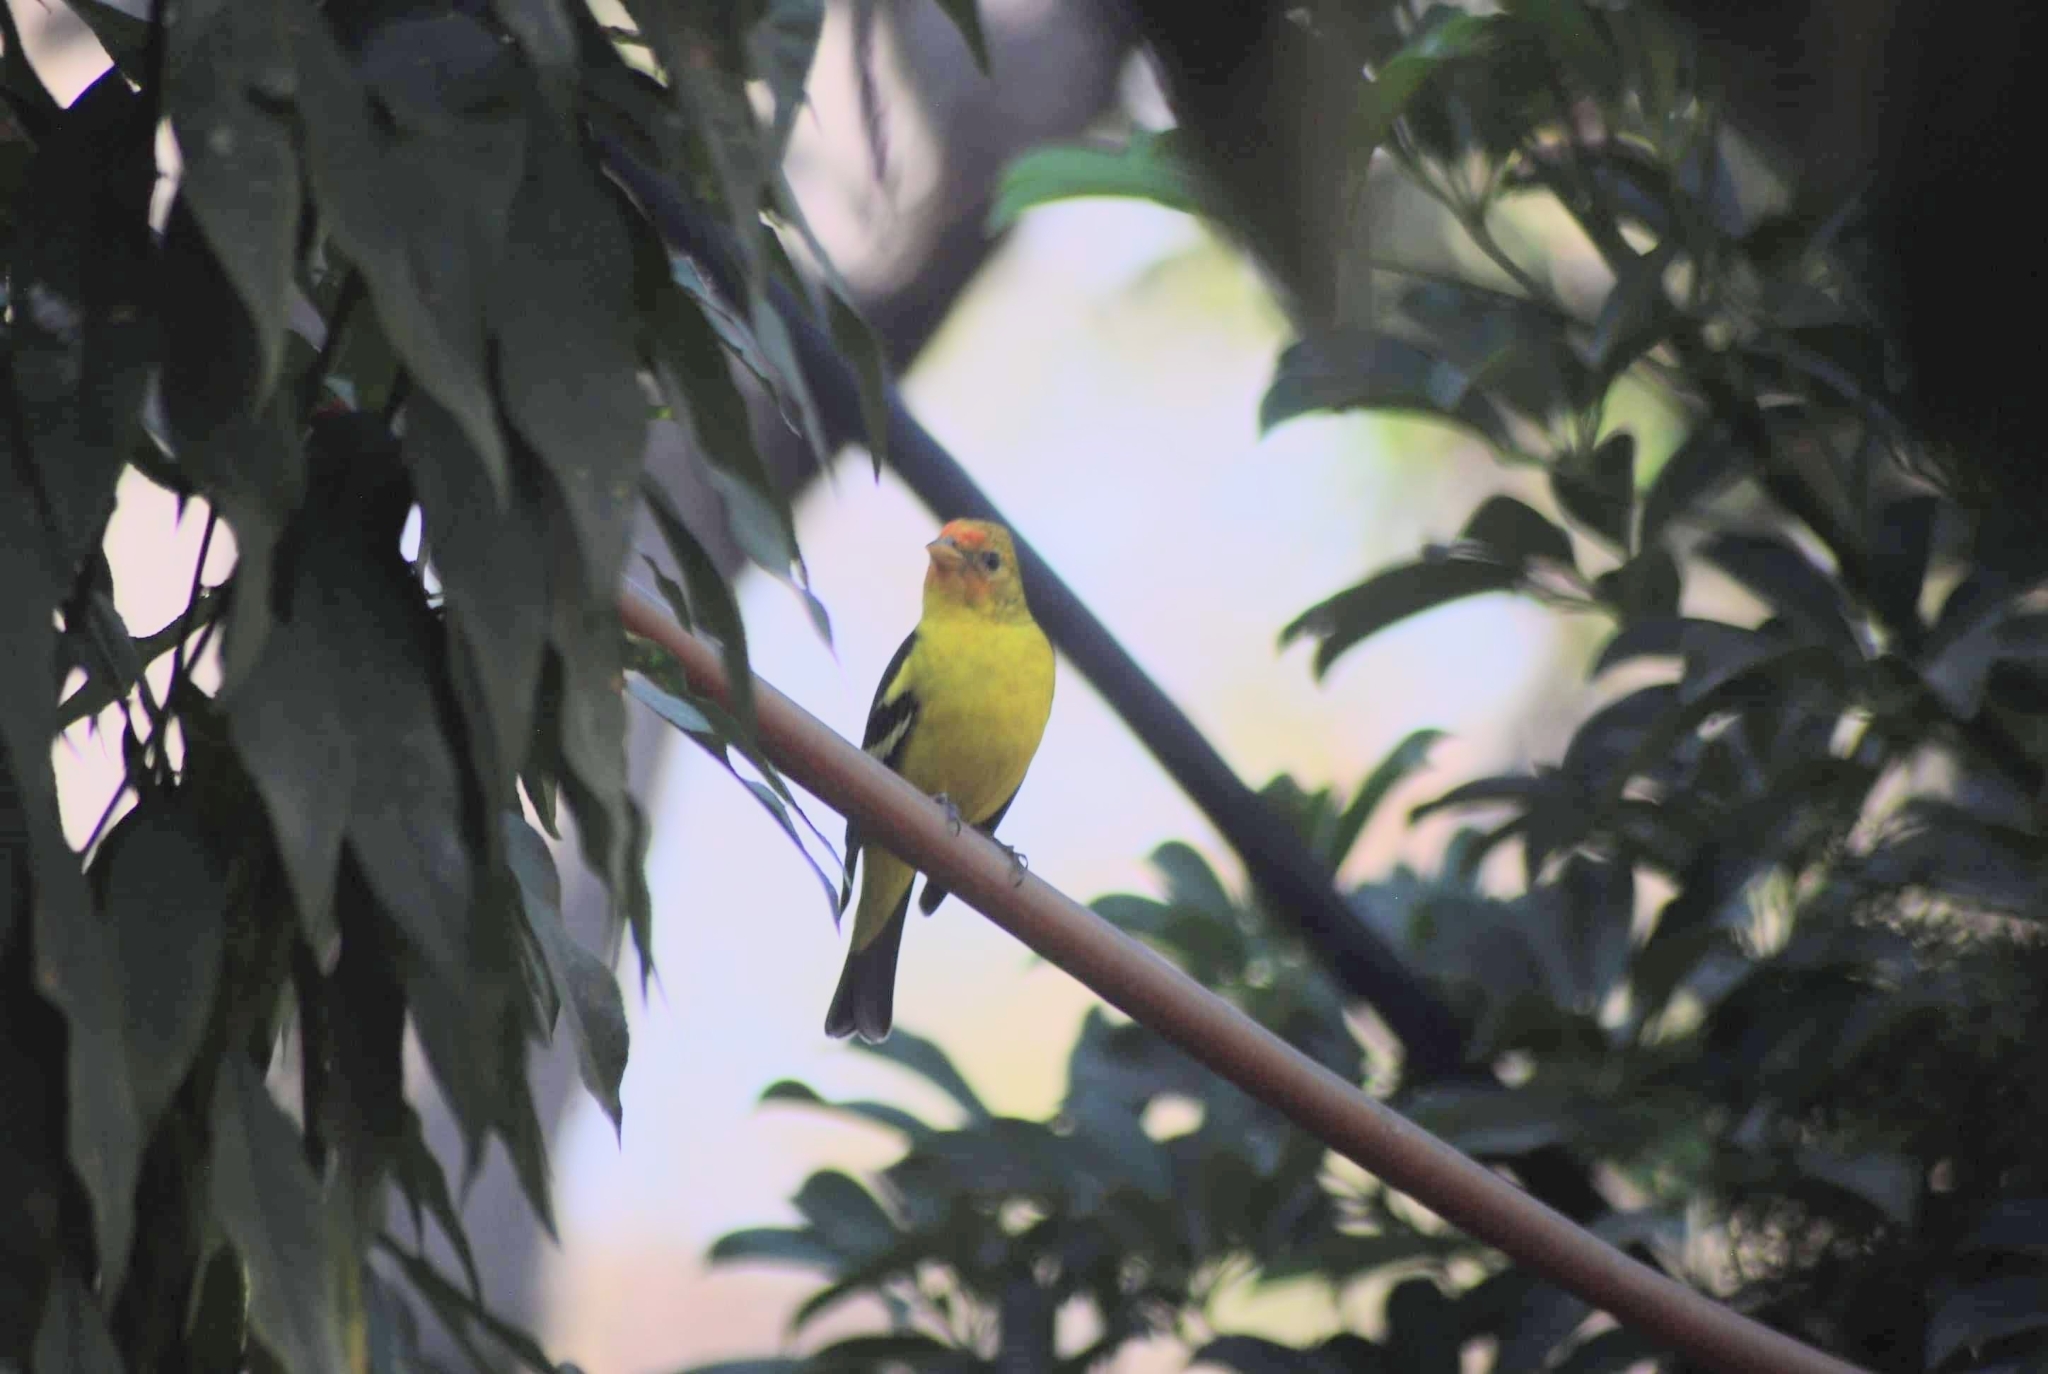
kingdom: Animalia
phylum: Chordata
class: Aves
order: Passeriformes
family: Cardinalidae
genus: Piranga
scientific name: Piranga ludoviciana
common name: Western tanager
